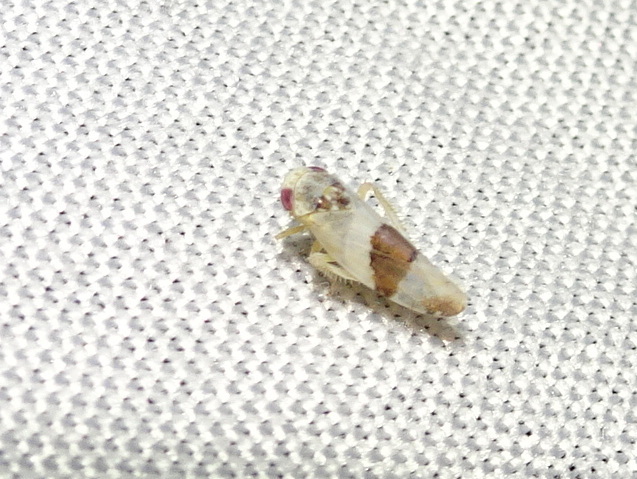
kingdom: Animalia
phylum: Arthropoda
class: Insecta
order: Hemiptera
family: Cicadellidae
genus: Norvellina
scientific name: Norvellina seminuda
